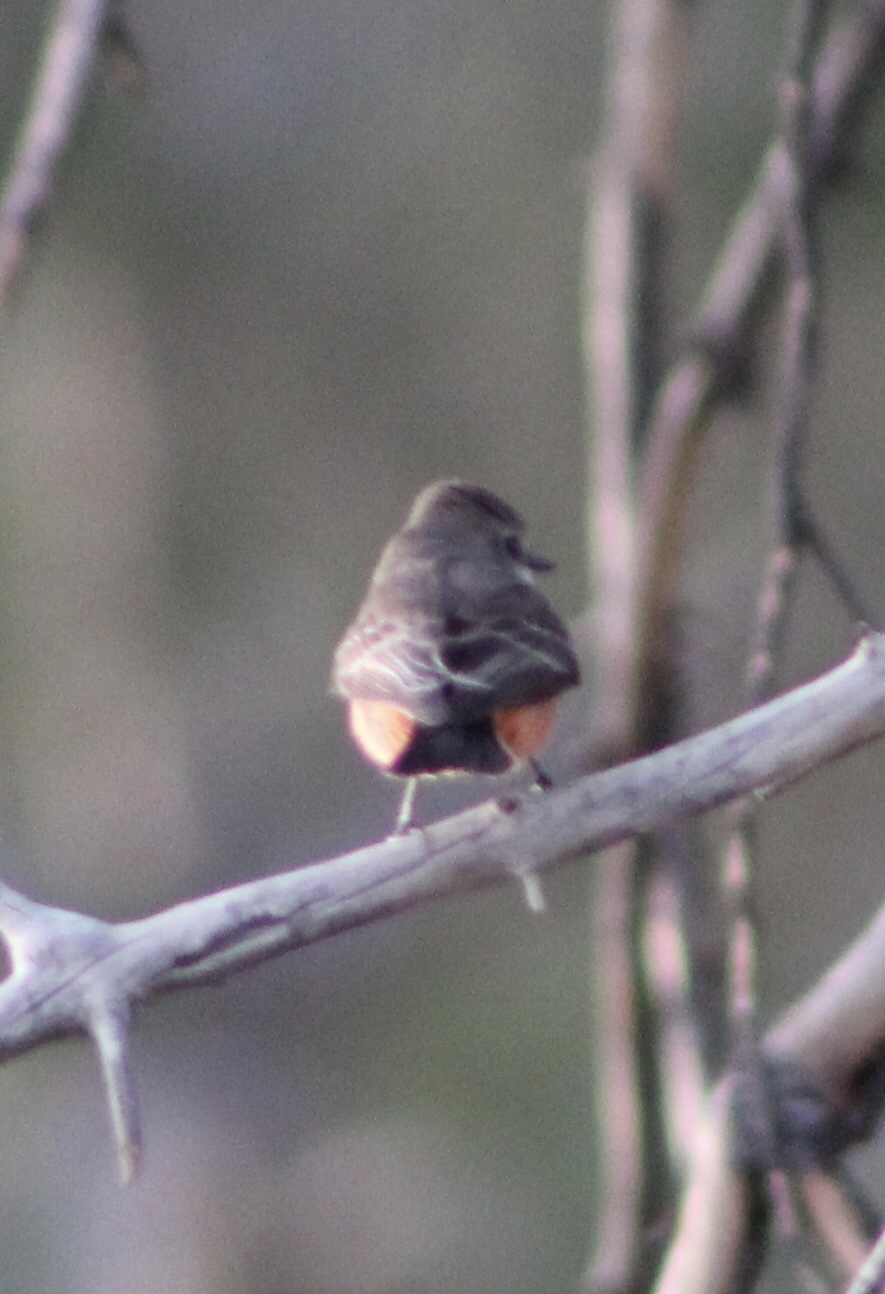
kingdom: Animalia
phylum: Chordata
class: Aves
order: Passeriformes
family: Tyrannidae
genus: Pyrocephalus
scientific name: Pyrocephalus rubinus
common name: Vermilion flycatcher
